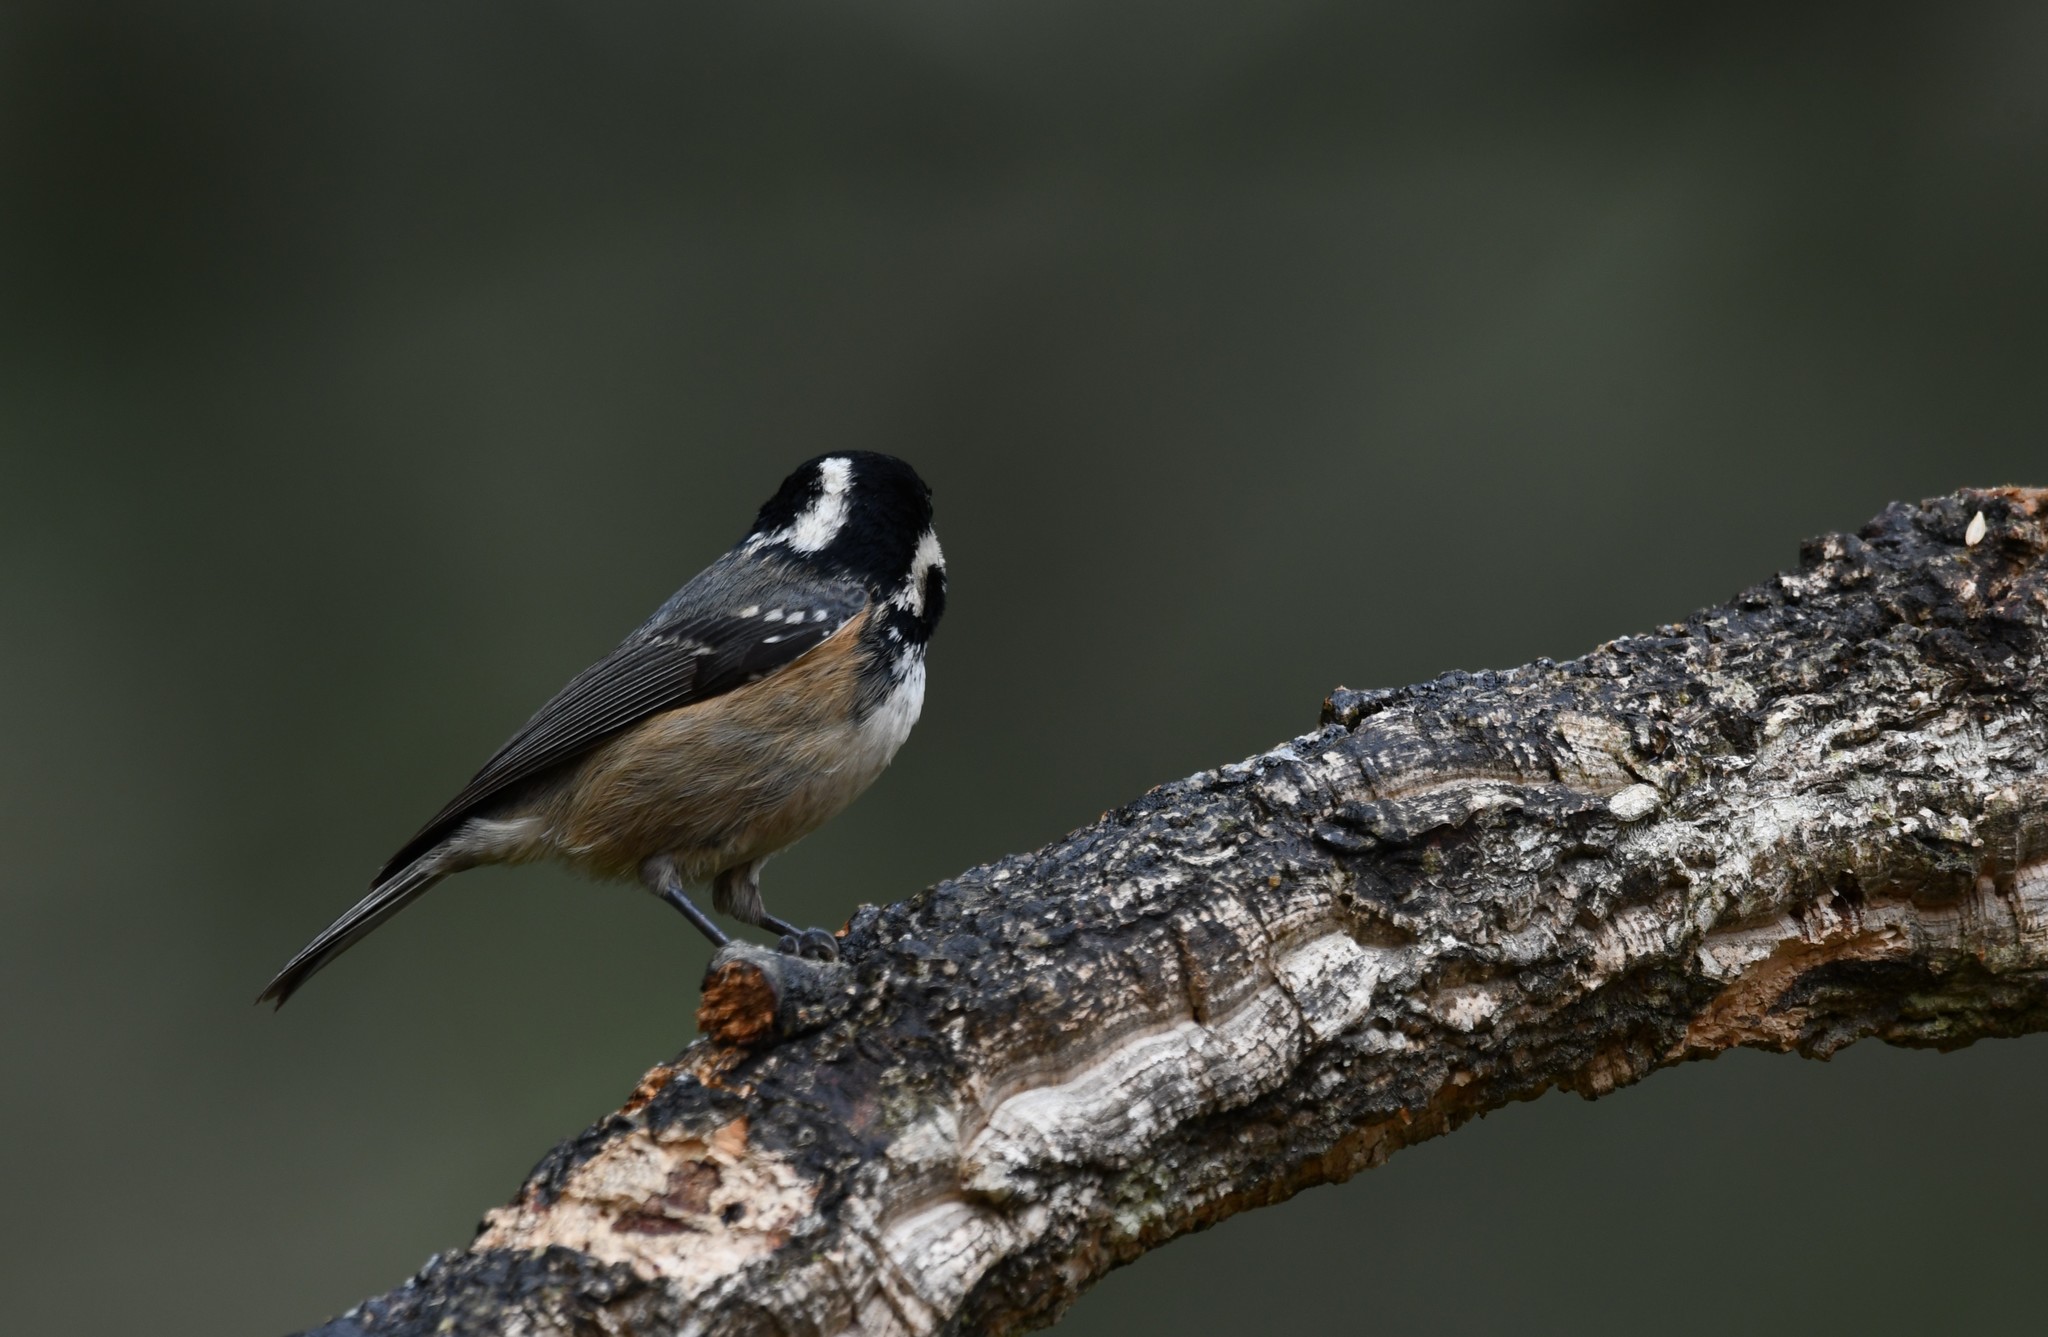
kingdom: Animalia
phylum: Chordata
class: Aves
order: Passeriformes
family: Paridae
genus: Periparus
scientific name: Periparus ater
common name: Coal tit
